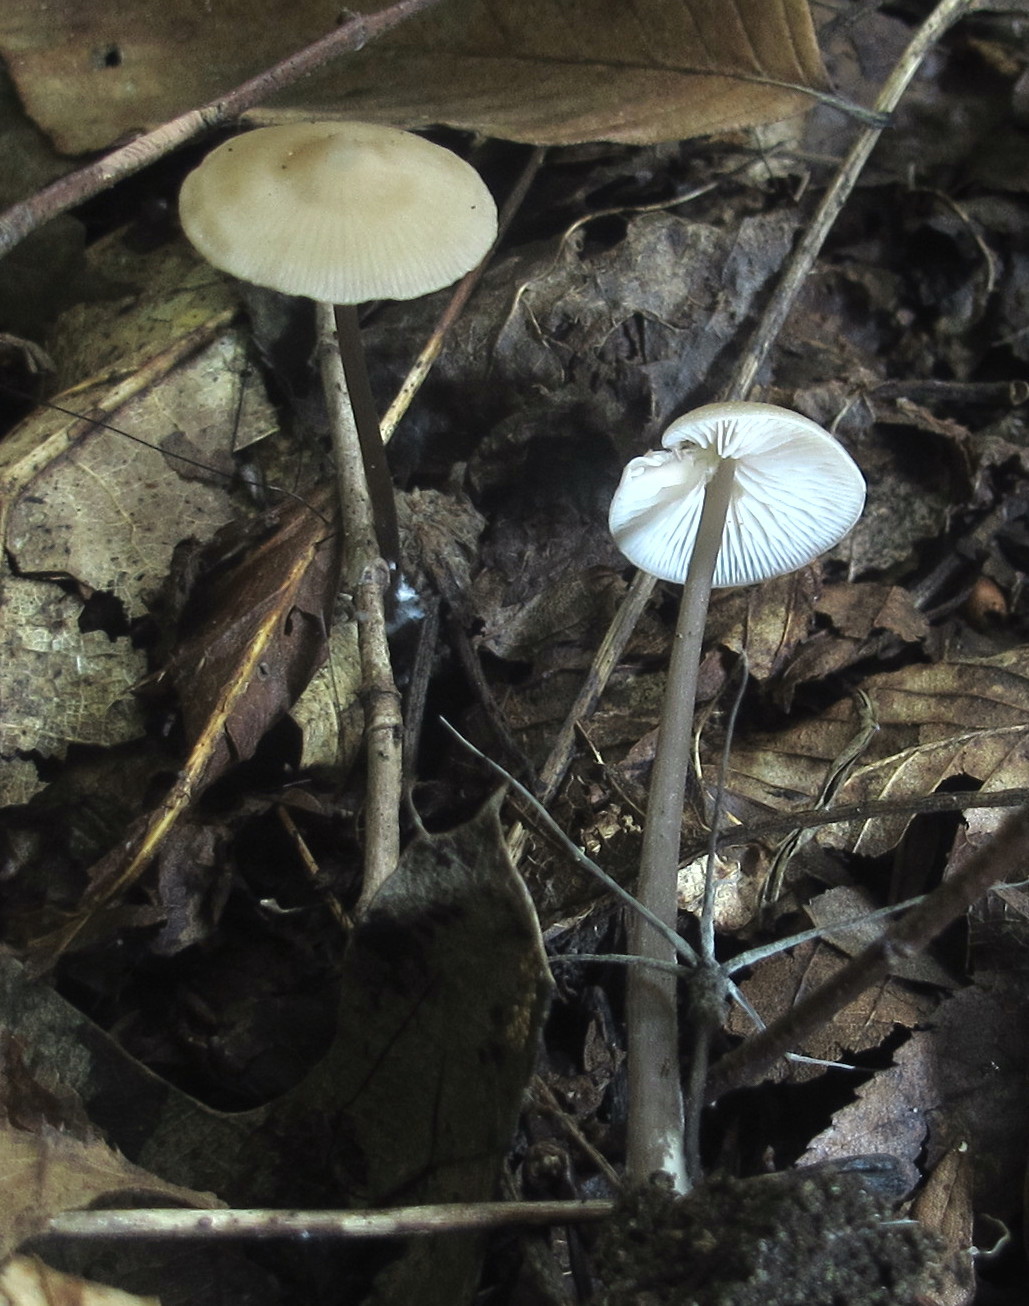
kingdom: Fungi
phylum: Basidiomycota
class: Agaricomycetes
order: Agaricales
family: Entolomataceae
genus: Entoloma
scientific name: Entoloma conicum
